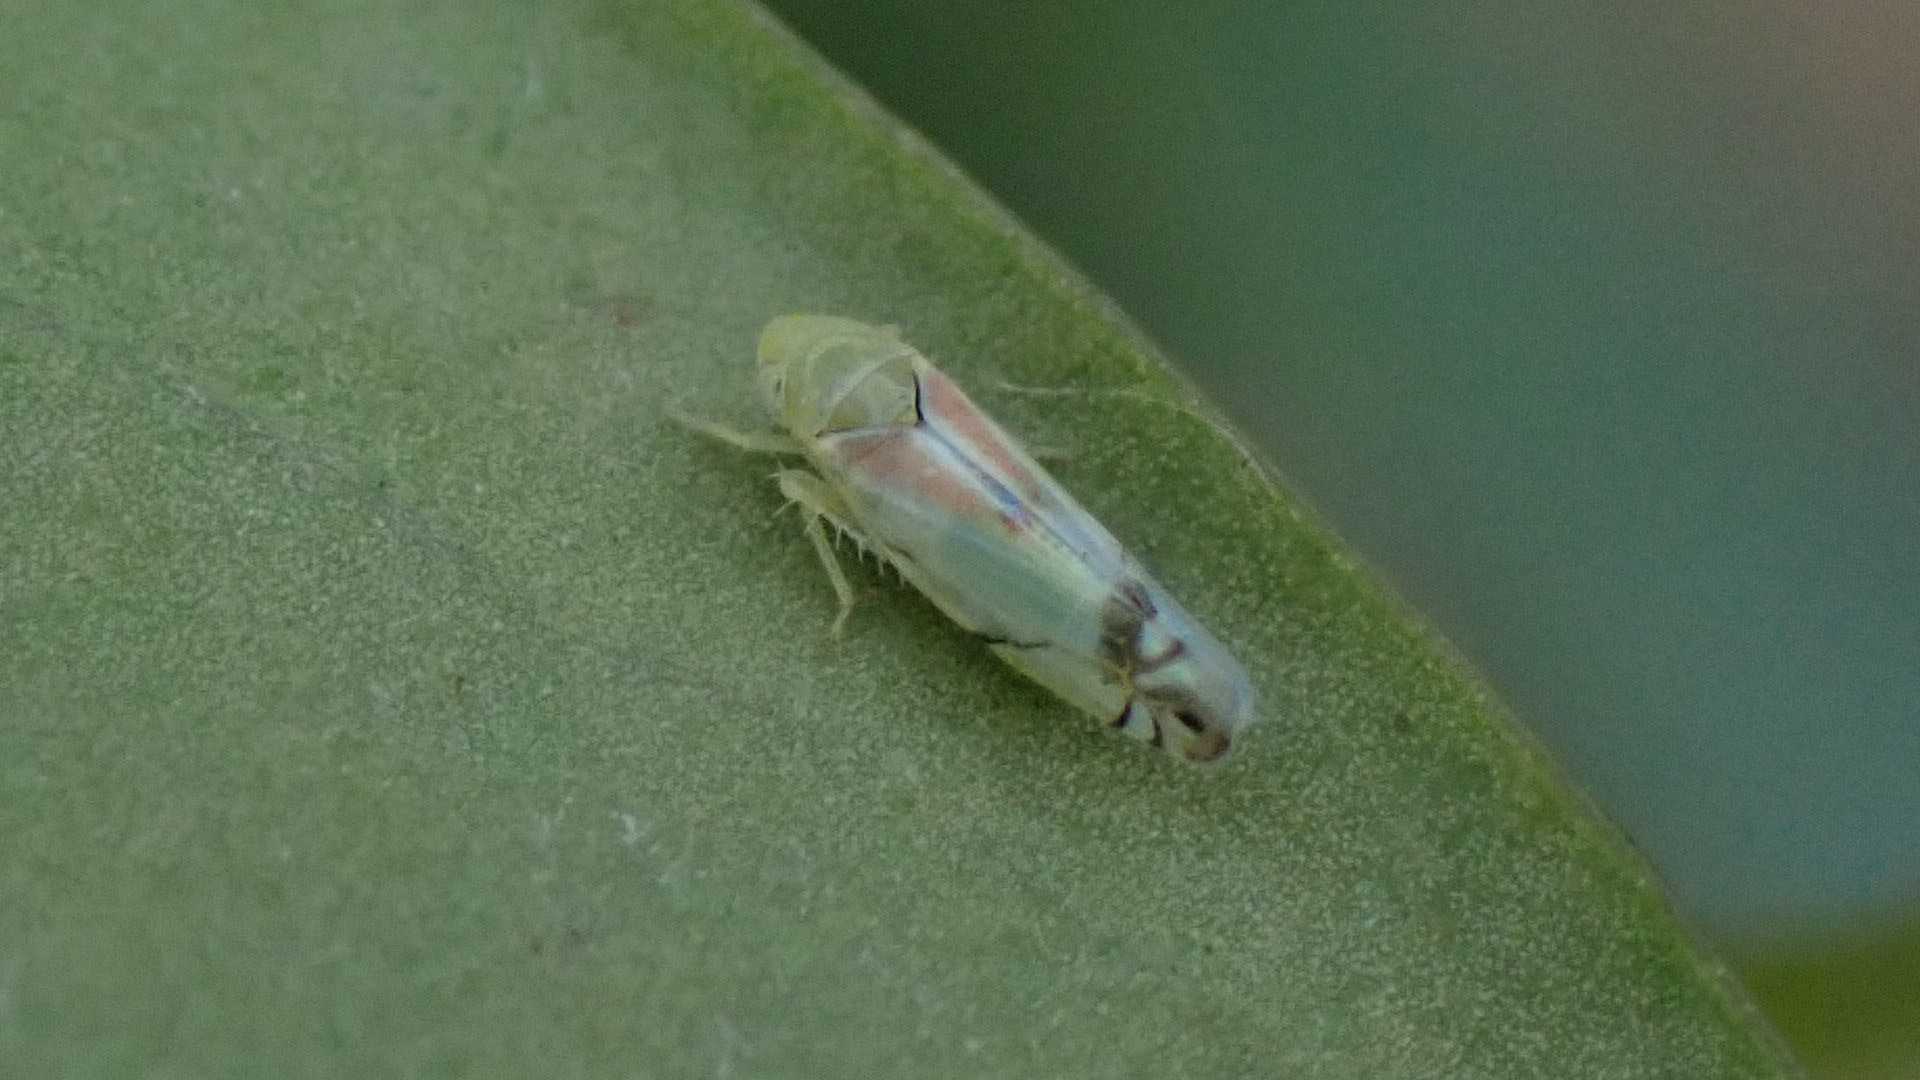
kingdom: Animalia
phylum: Arthropoda
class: Insecta
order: Hemiptera
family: Cicadellidae
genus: Zyginella
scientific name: Zyginella pulchra
